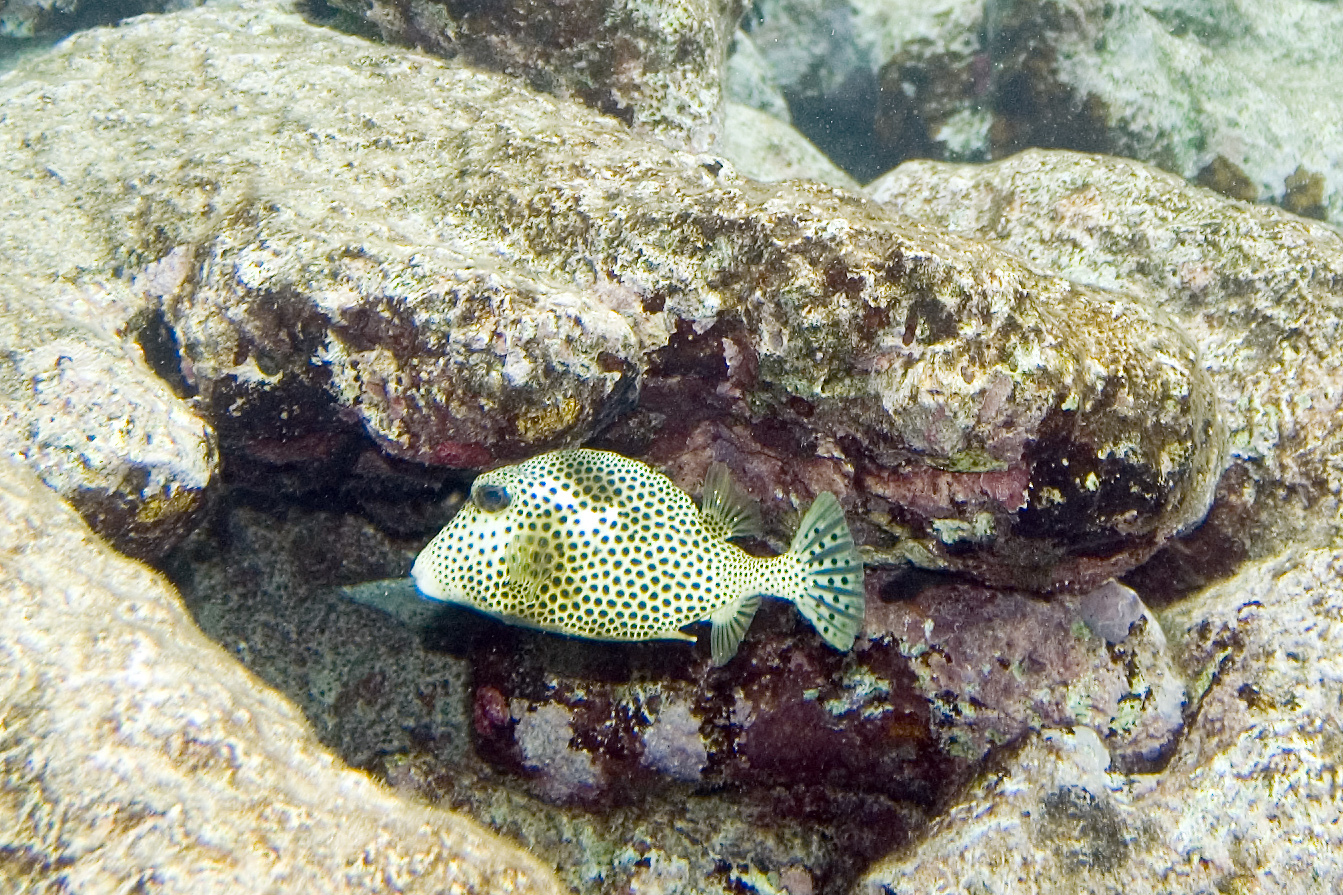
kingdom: Animalia
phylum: Chordata
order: Tetraodontiformes
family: Ostraciidae
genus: Lactophrys
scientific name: Lactophrys bicaudalis
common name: Spotted trunkfish
